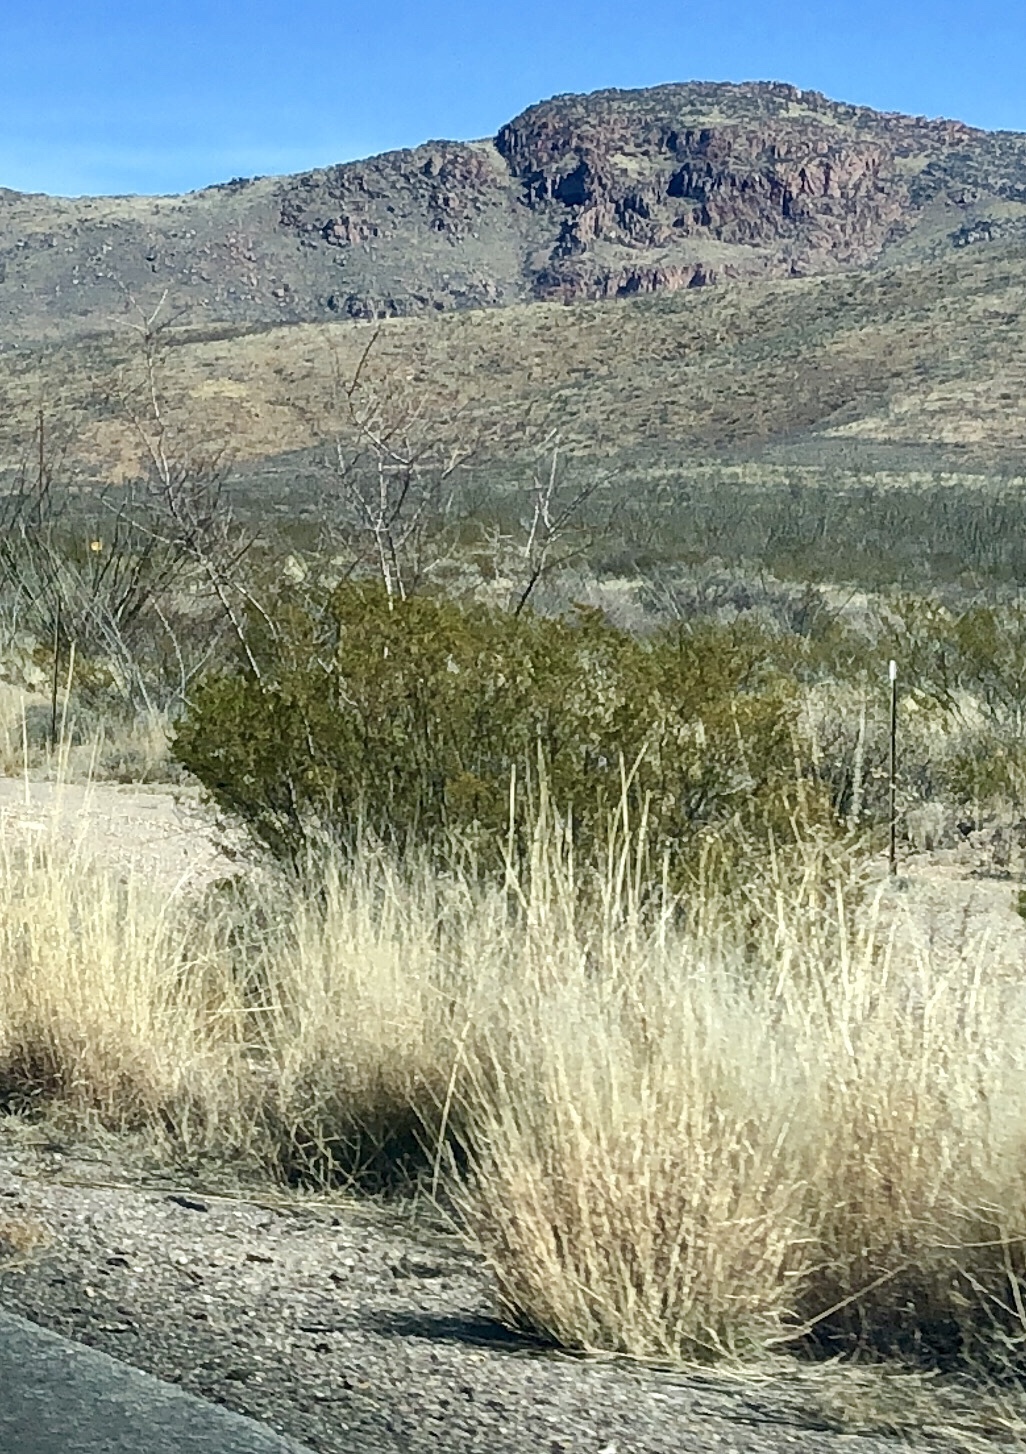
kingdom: Plantae
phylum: Tracheophyta
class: Magnoliopsida
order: Zygophyllales
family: Zygophyllaceae
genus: Larrea
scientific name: Larrea tridentata
